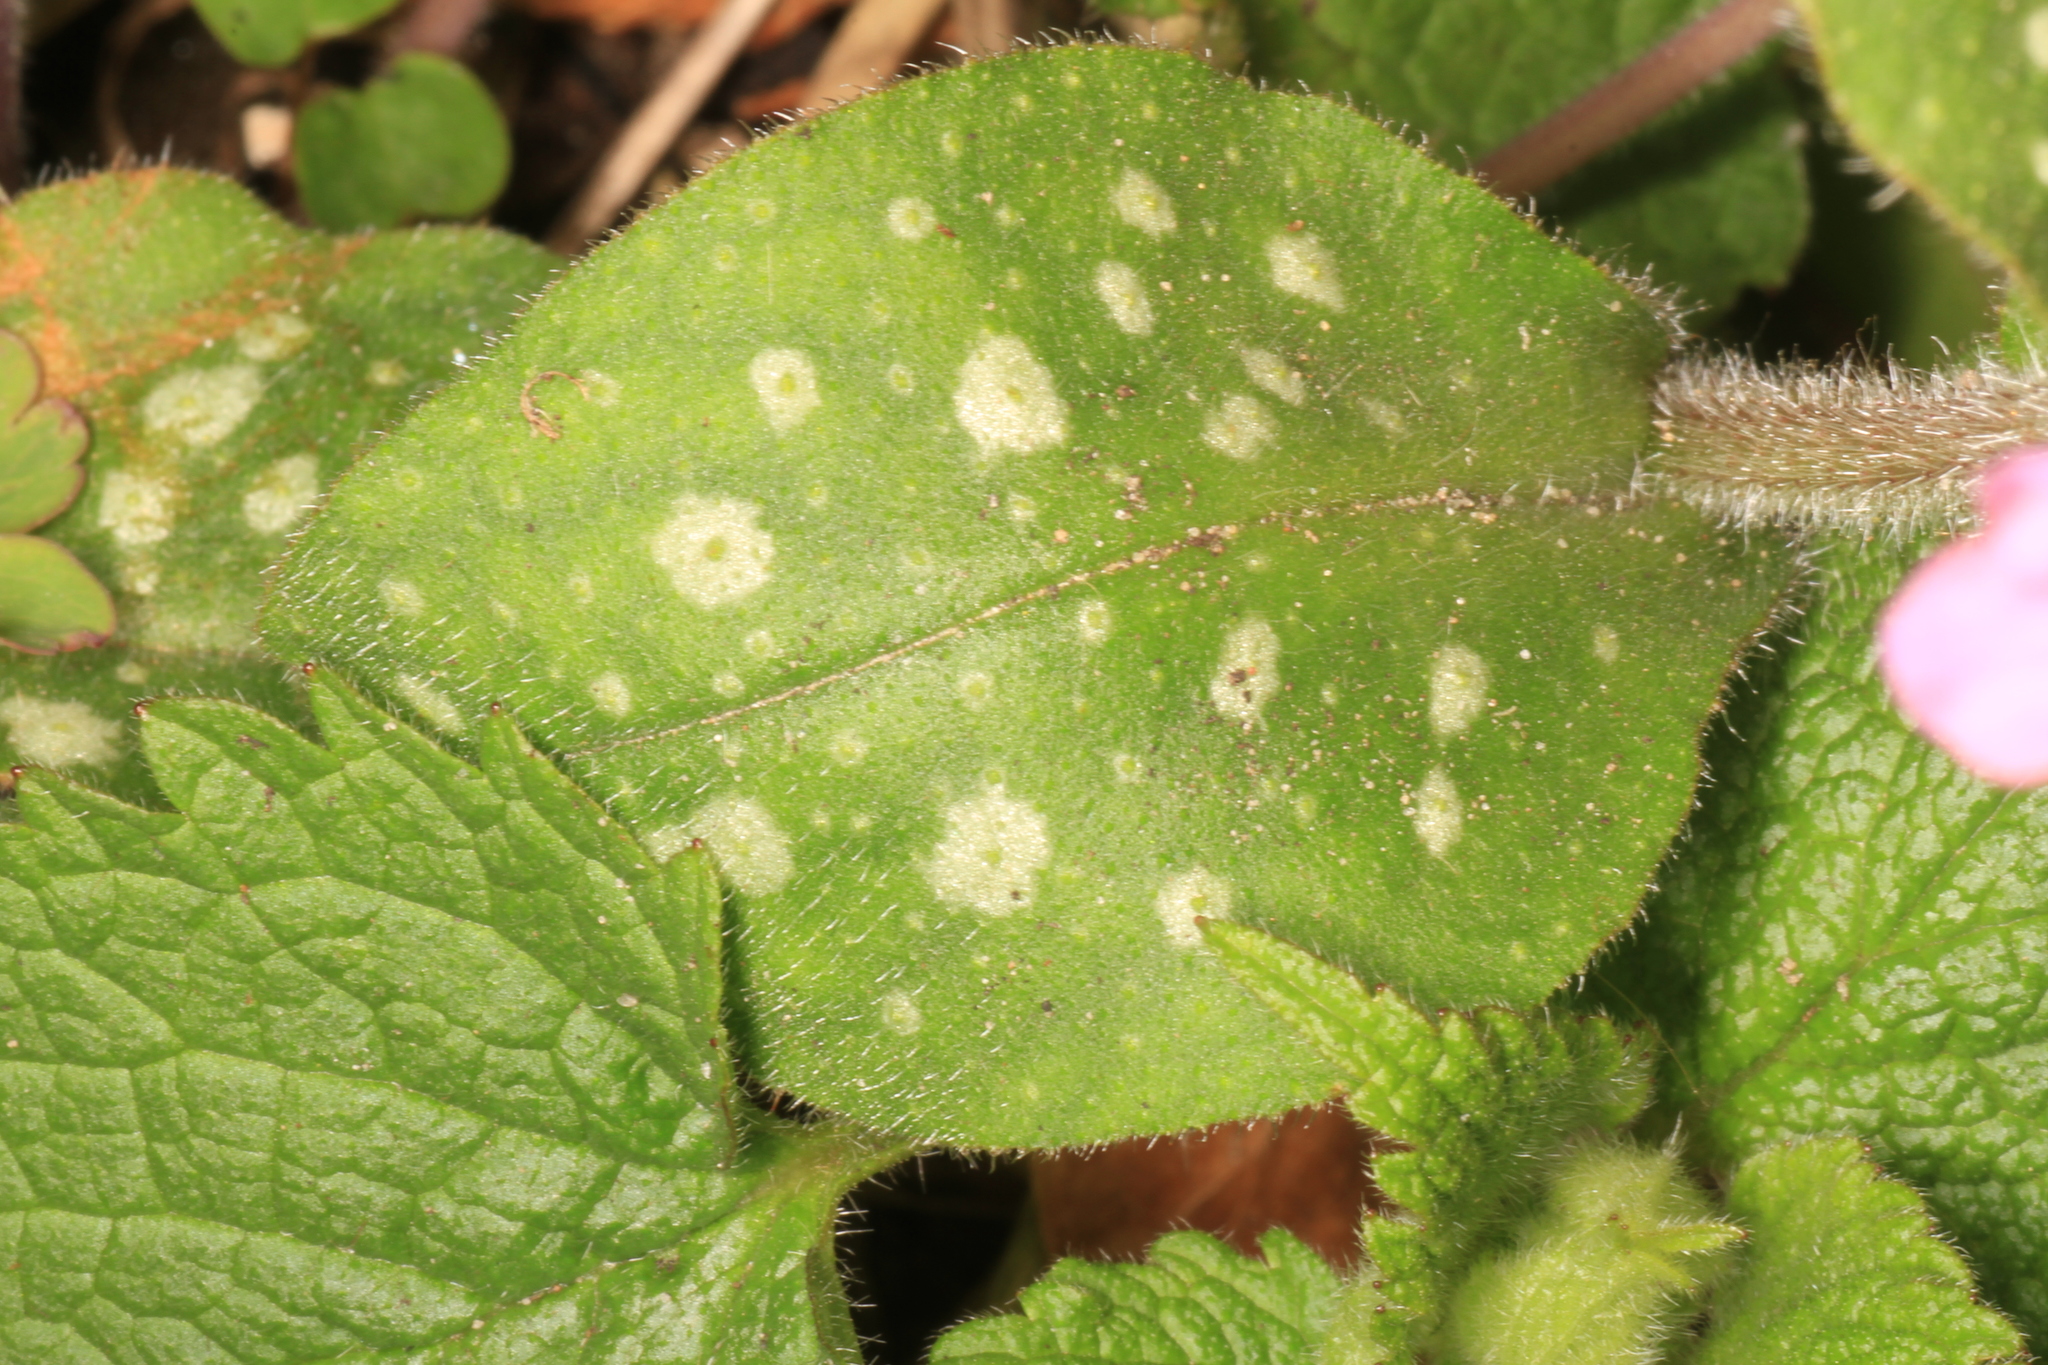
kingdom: Plantae
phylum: Tracheophyta
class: Magnoliopsida
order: Boraginales
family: Boraginaceae
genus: Pulmonaria
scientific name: Pulmonaria officinalis
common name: Lungwort
